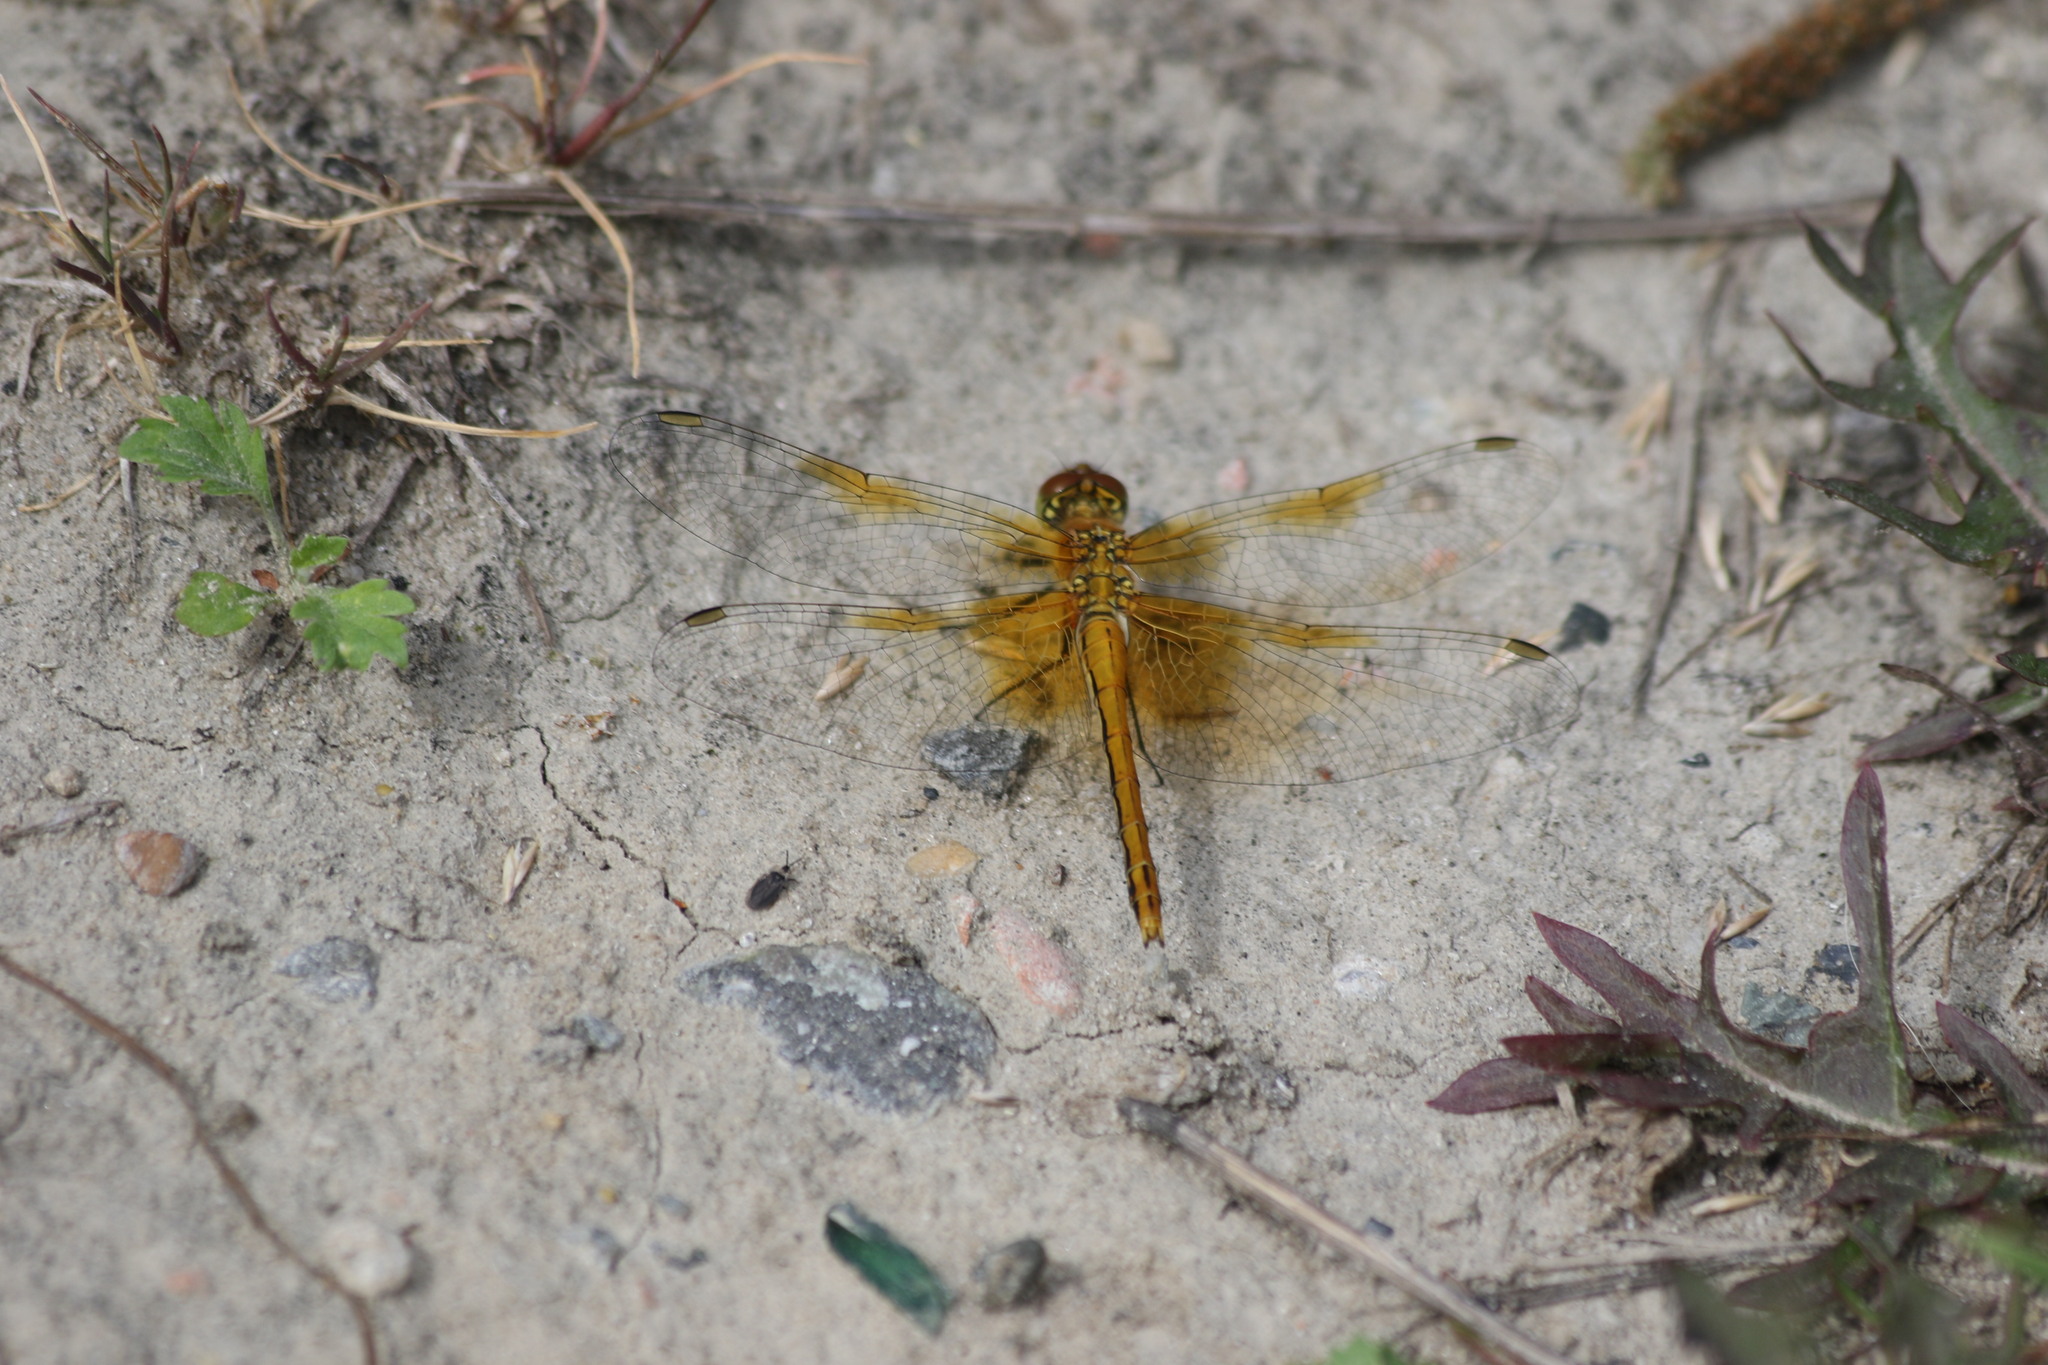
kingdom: Animalia
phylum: Arthropoda
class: Insecta
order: Odonata
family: Libellulidae
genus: Sympetrum
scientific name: Sympetrum flaveolum
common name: Yellow-winged darter
